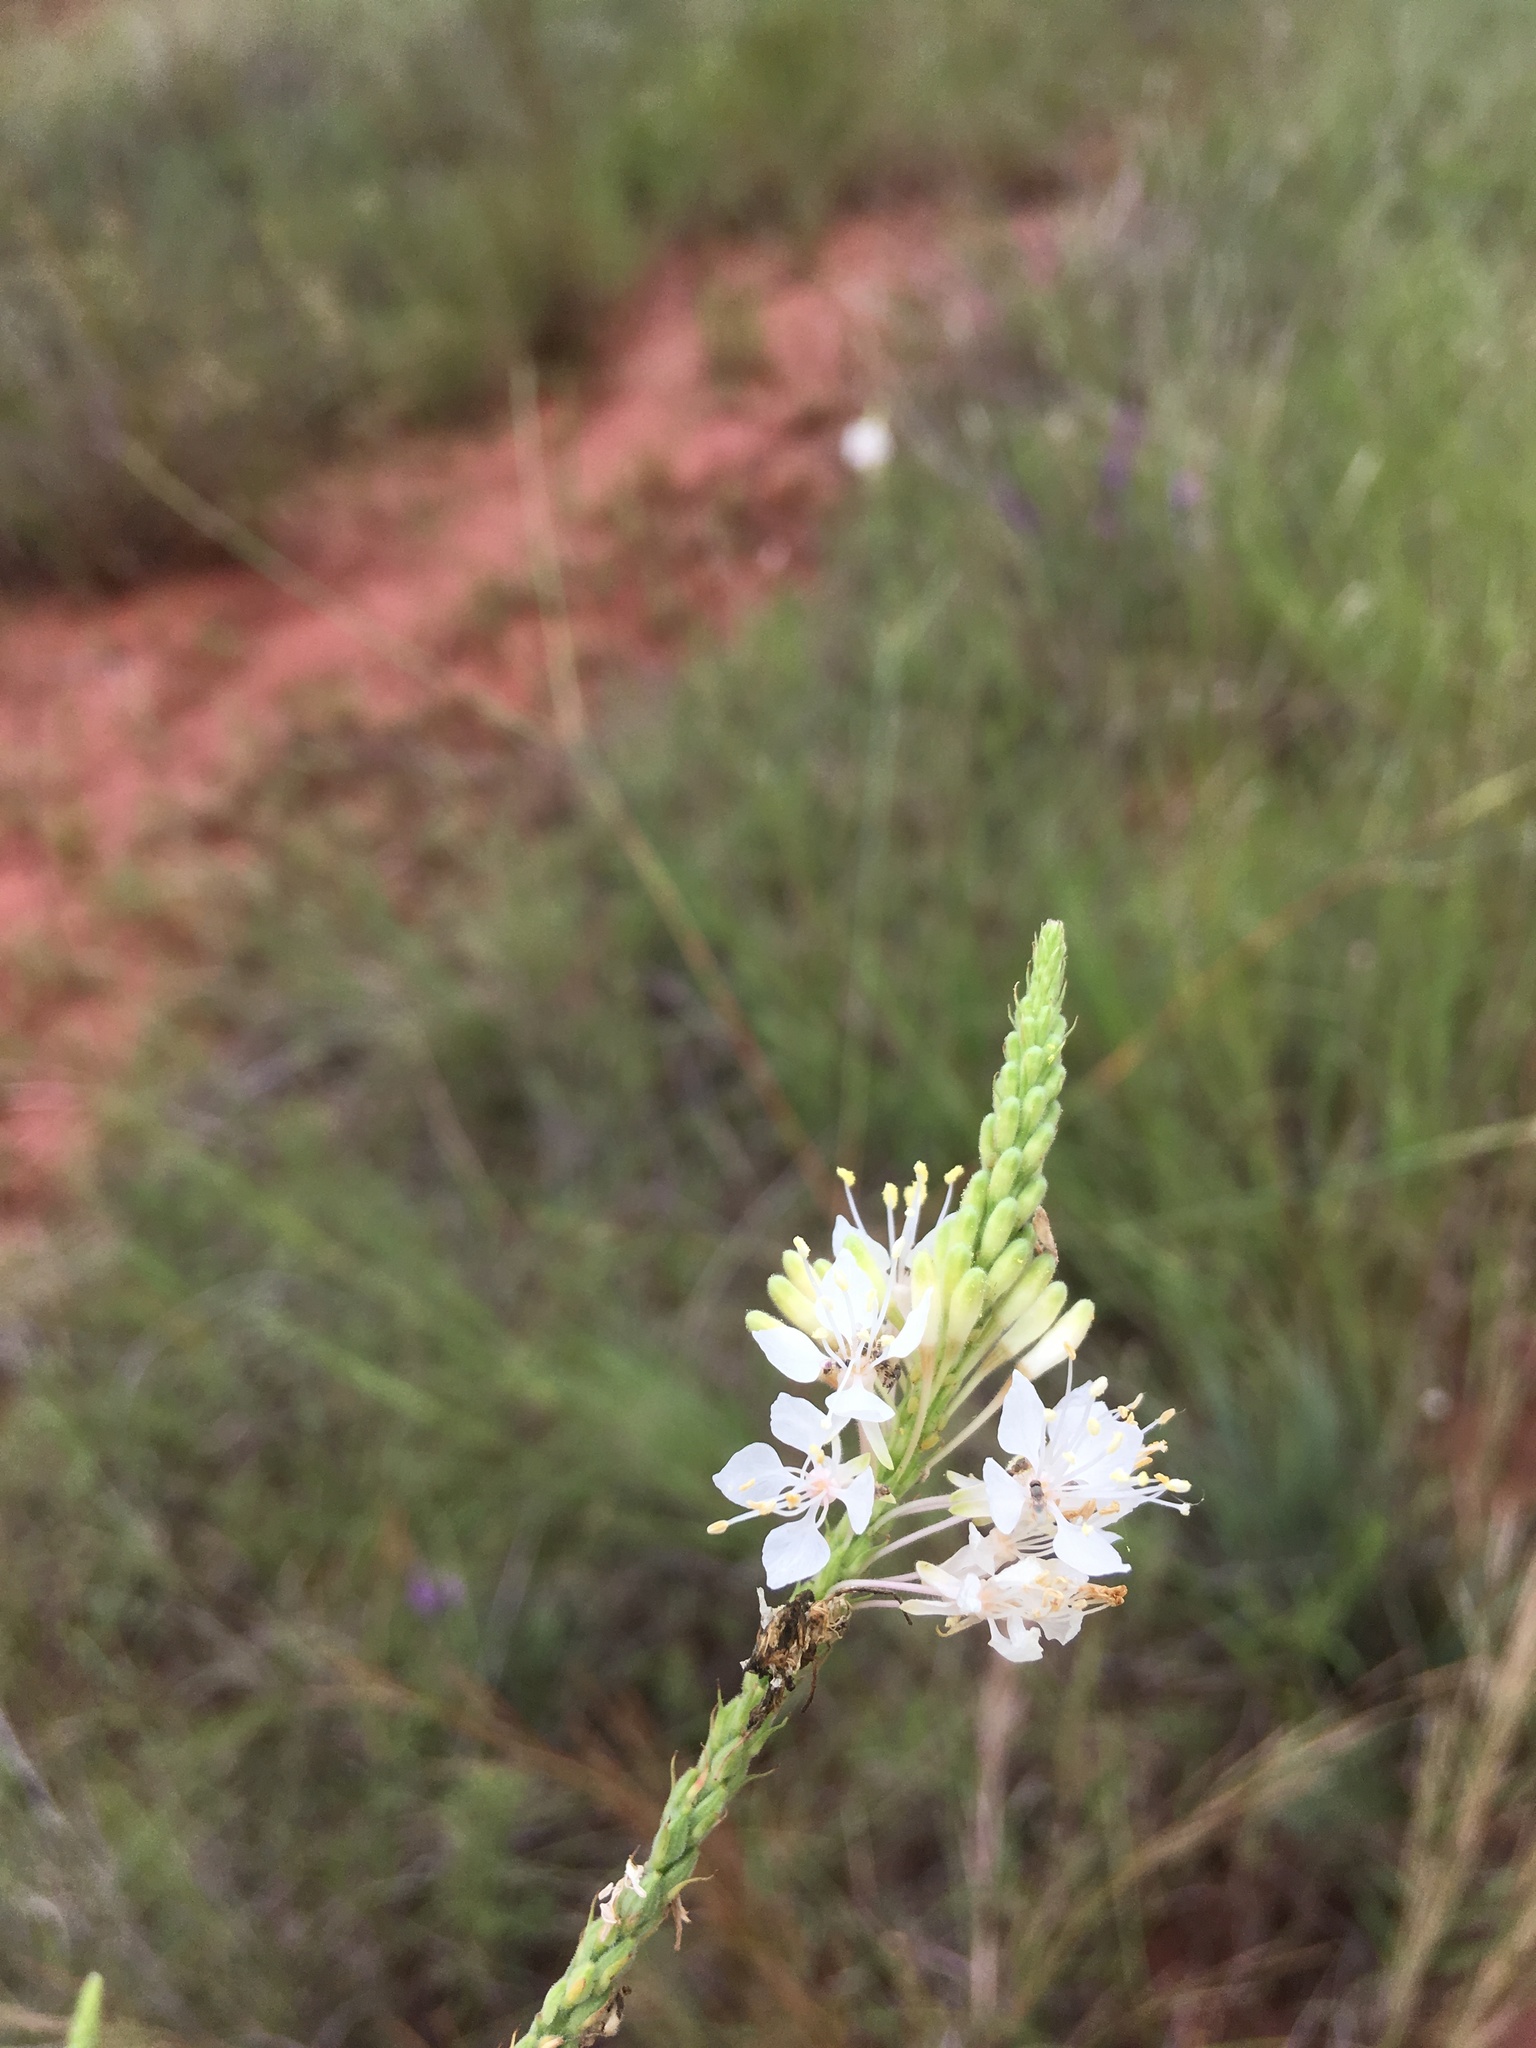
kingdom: Plantae
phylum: Tracheophyta
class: Magnoliopsida
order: Myrtales
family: Onagraceae
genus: Oenothera
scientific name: Oenothera glaucifolia
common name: False gaura
